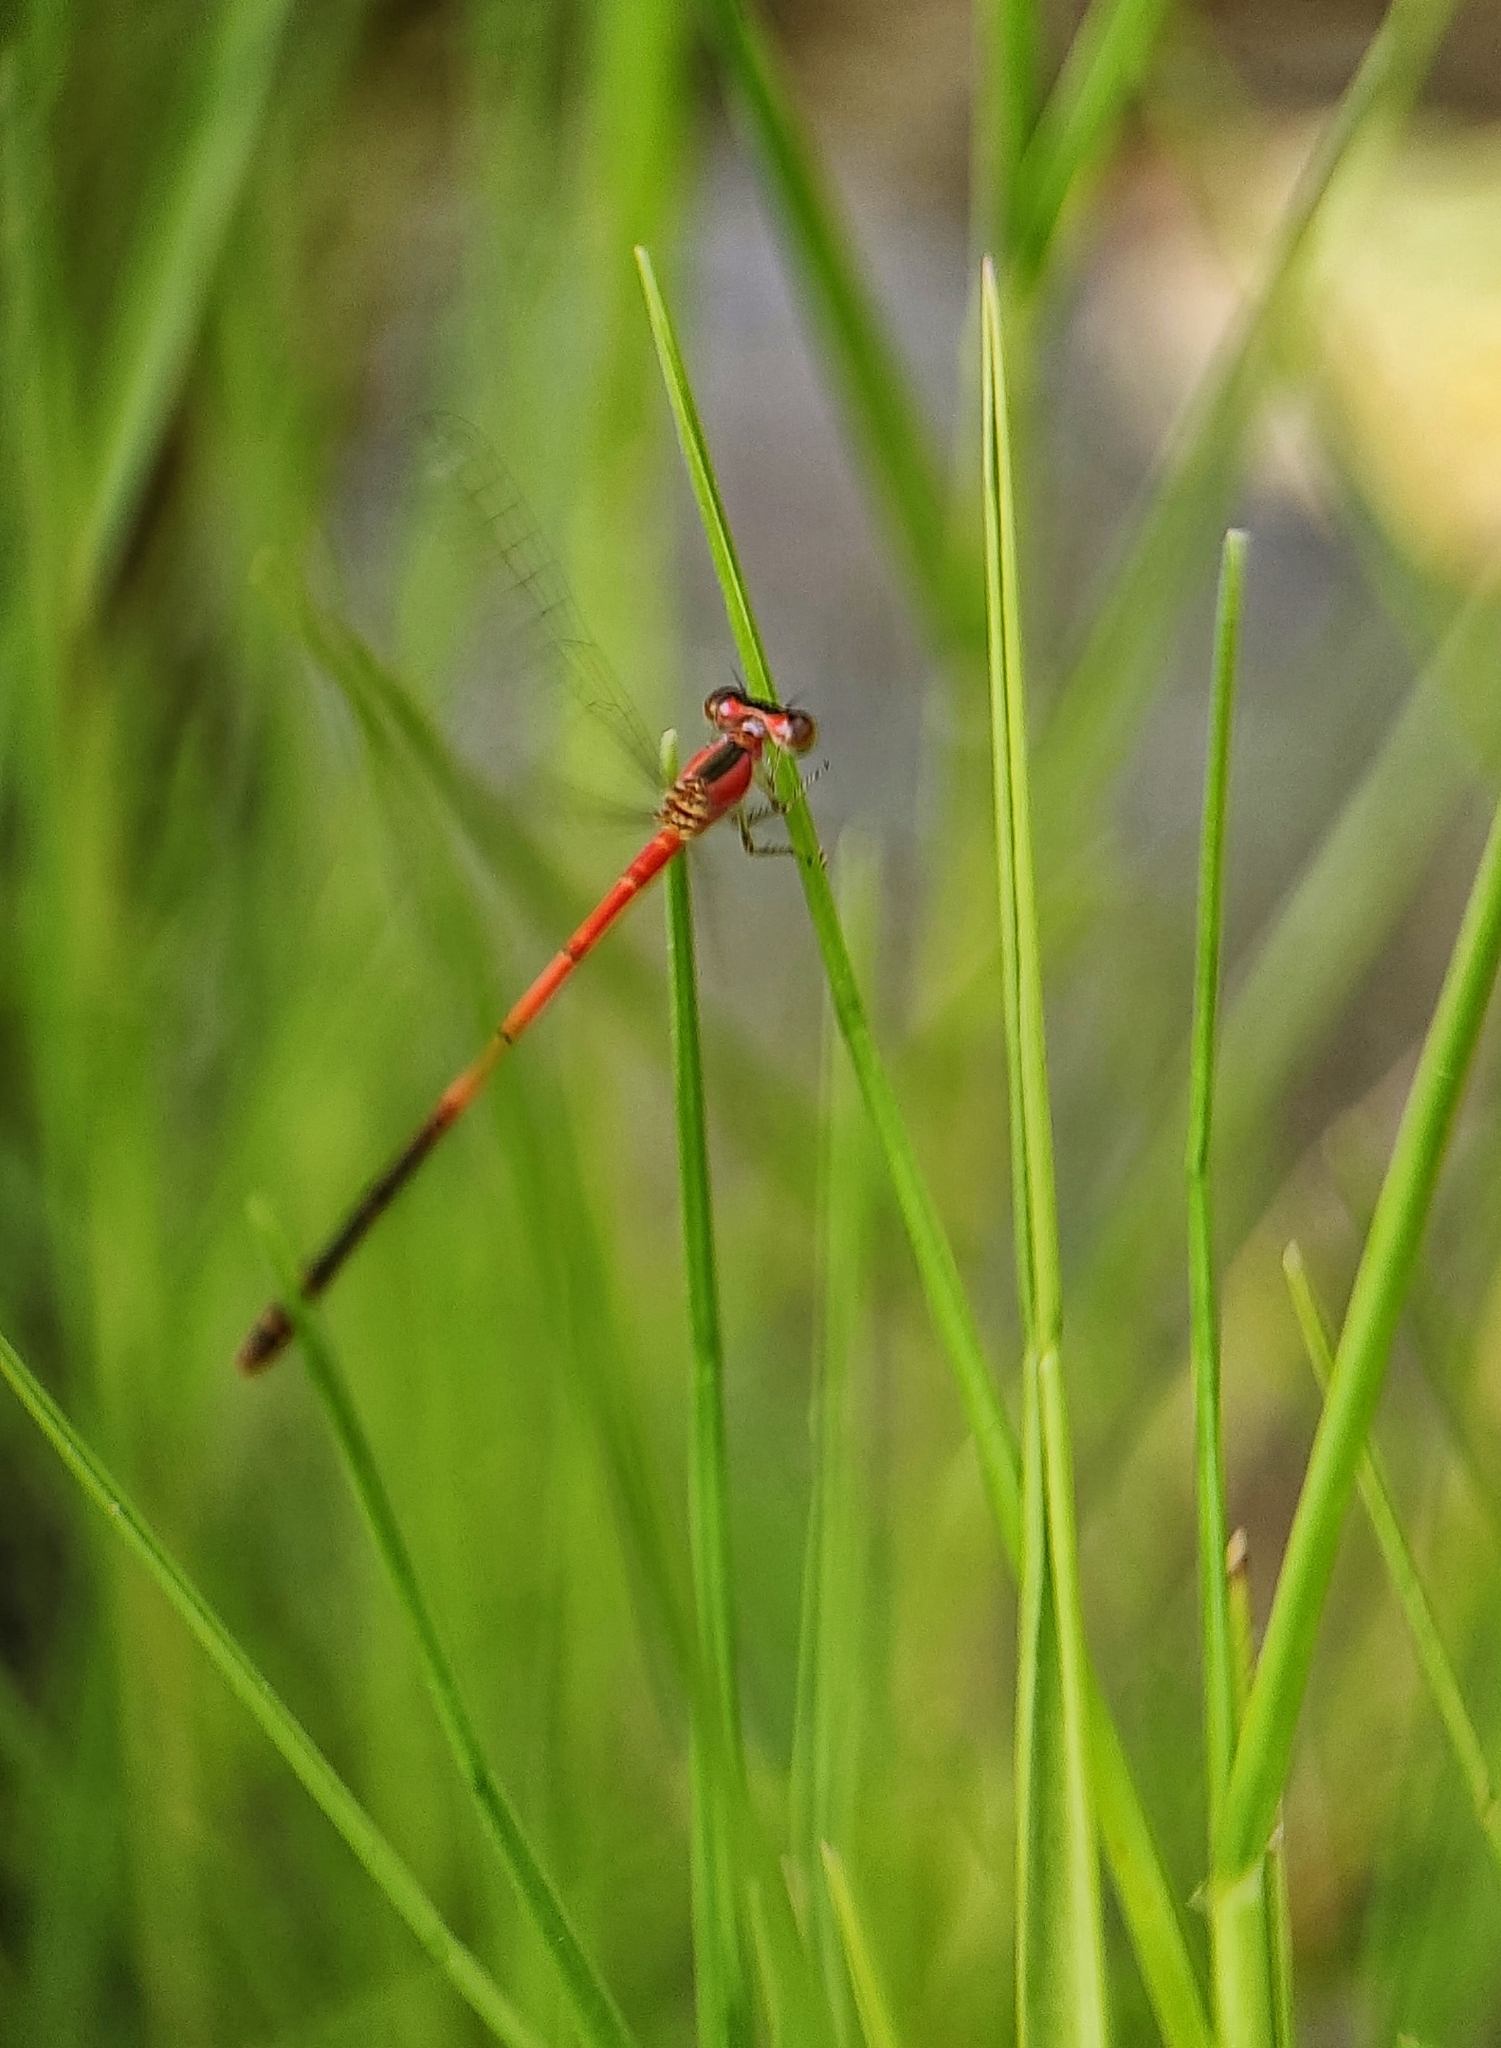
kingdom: Animalia
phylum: Arthropoda
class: Insecta
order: Odonata
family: Coenagrionidae
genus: Agriocnemis
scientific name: Agriocnemis femina
